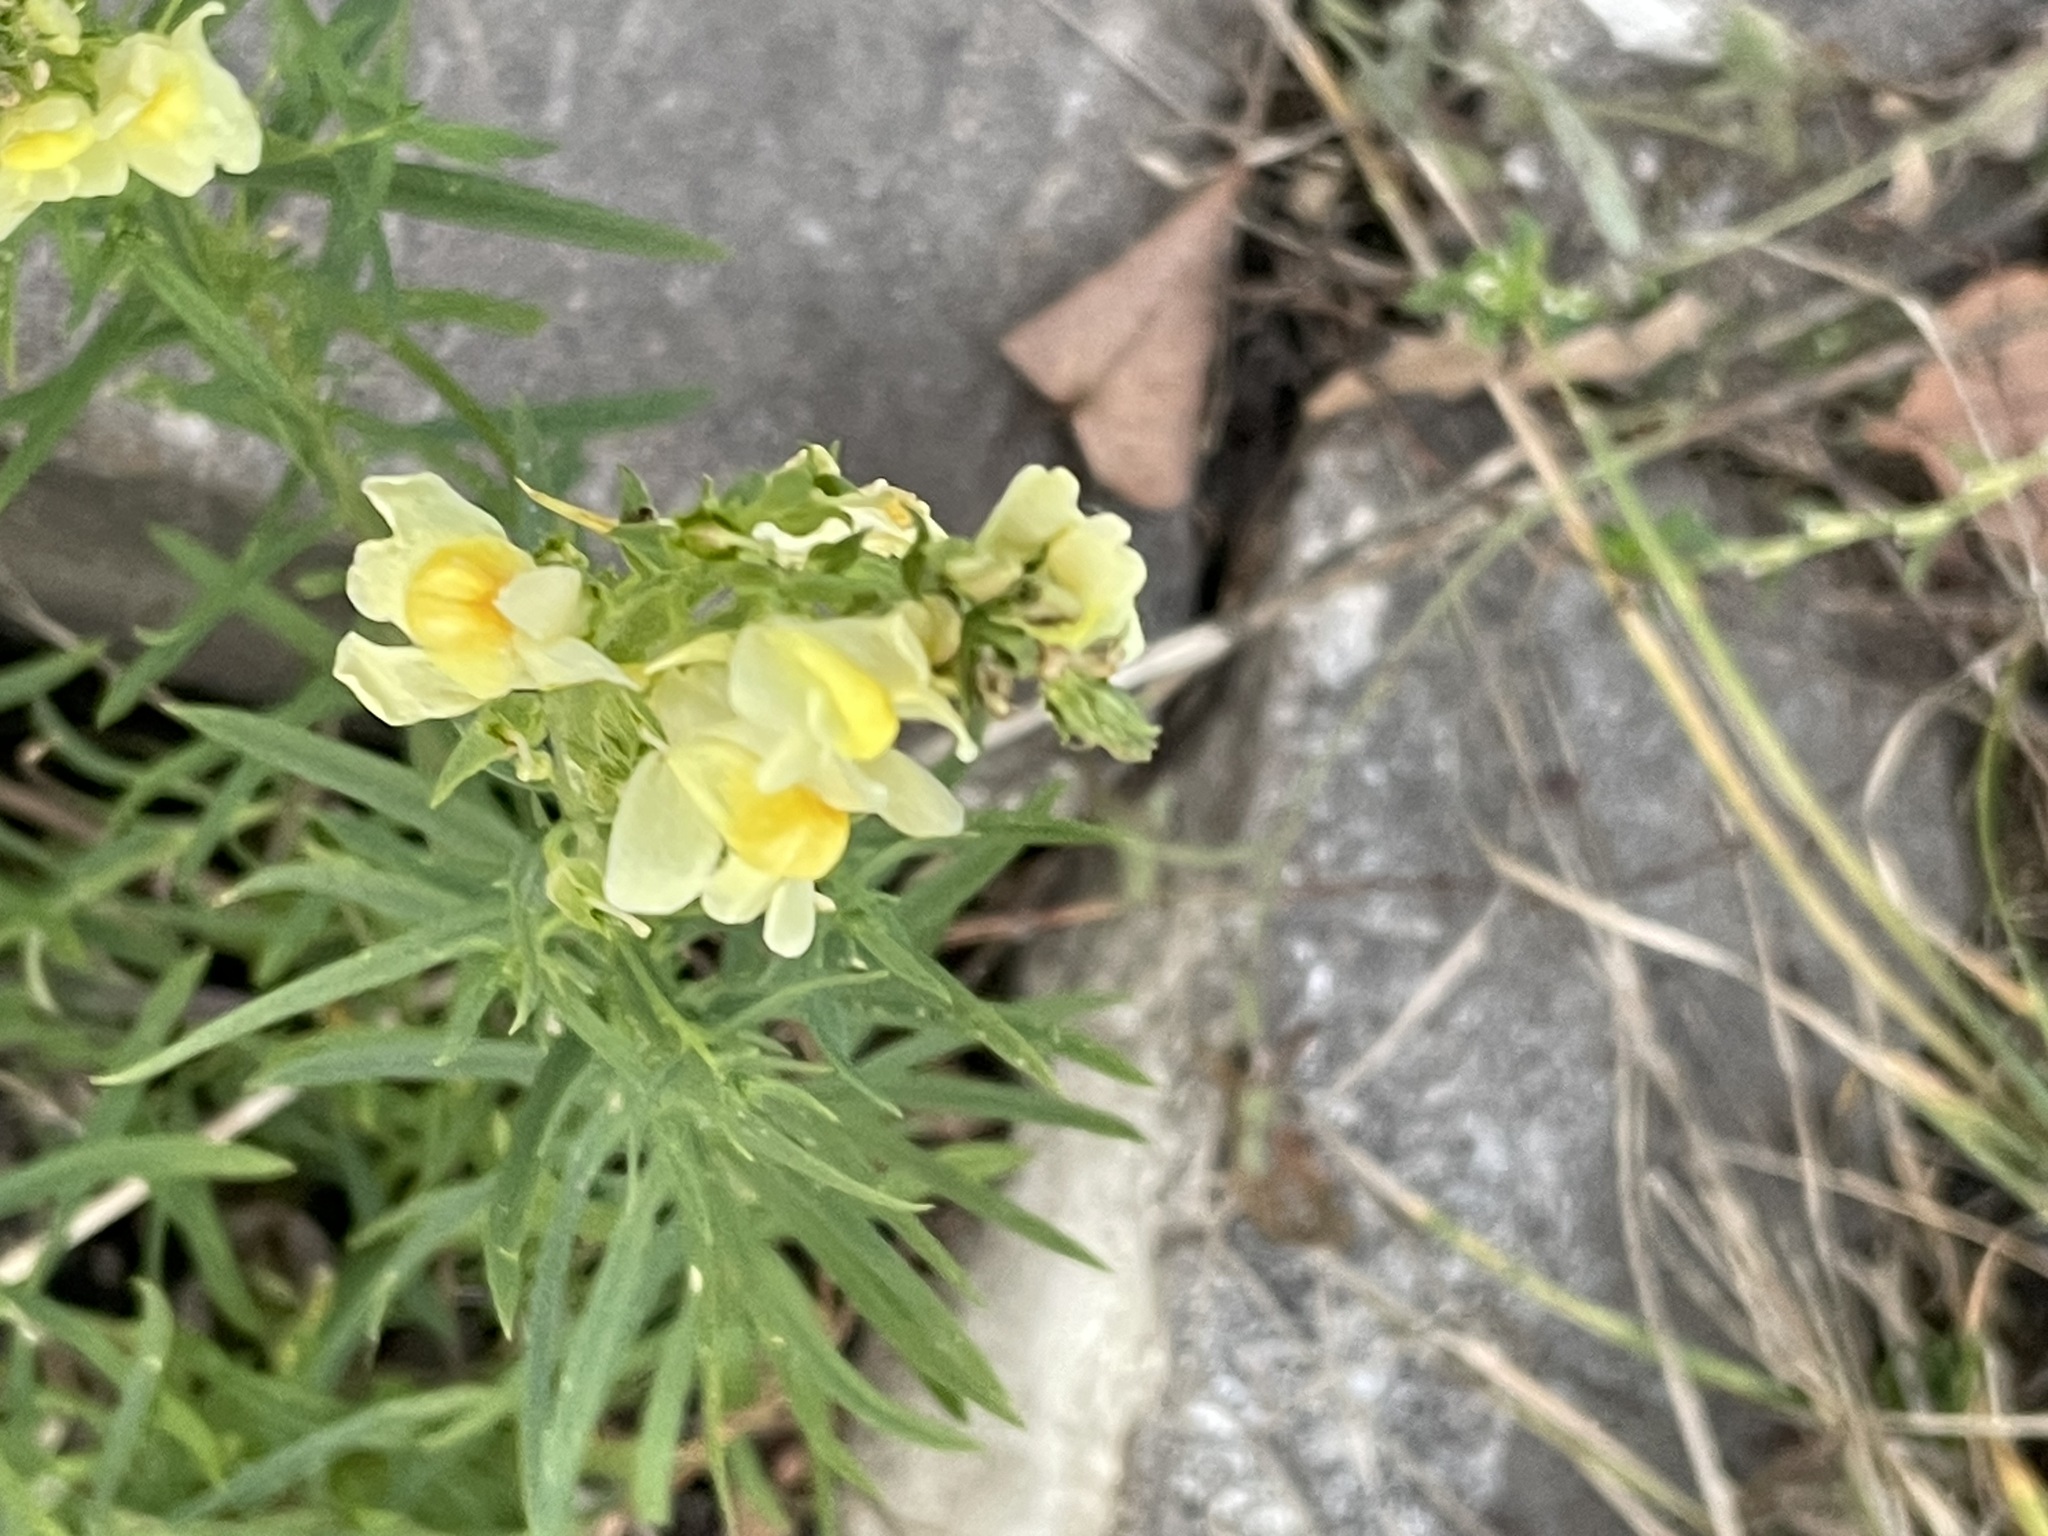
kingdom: Plantae
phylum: Tracheophyta
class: Magnoliopsida
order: Lamiales
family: Plantaginaceae
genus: Linaria
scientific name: Linaria vulgaris
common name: Butter and eggs
